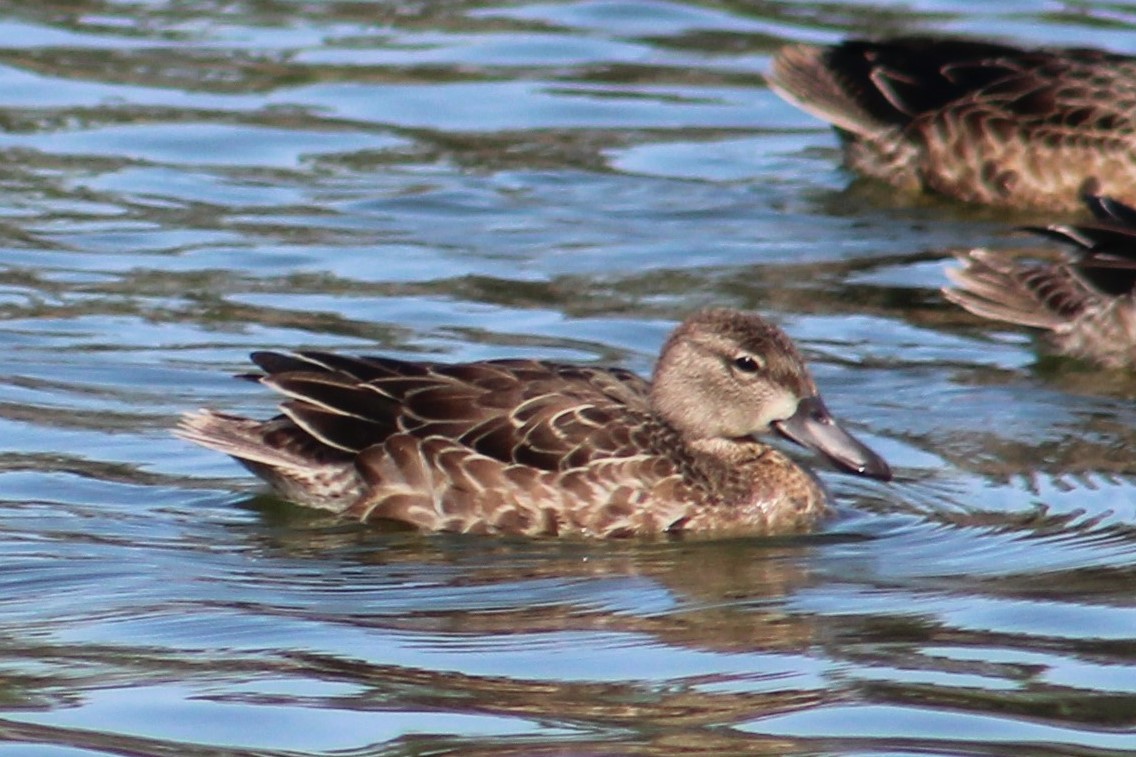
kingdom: Animalia
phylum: Chordata
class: Aves
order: Anseriformes
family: Anatidae
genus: Spatula
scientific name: Spatula discors
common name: Blue-winged teal
